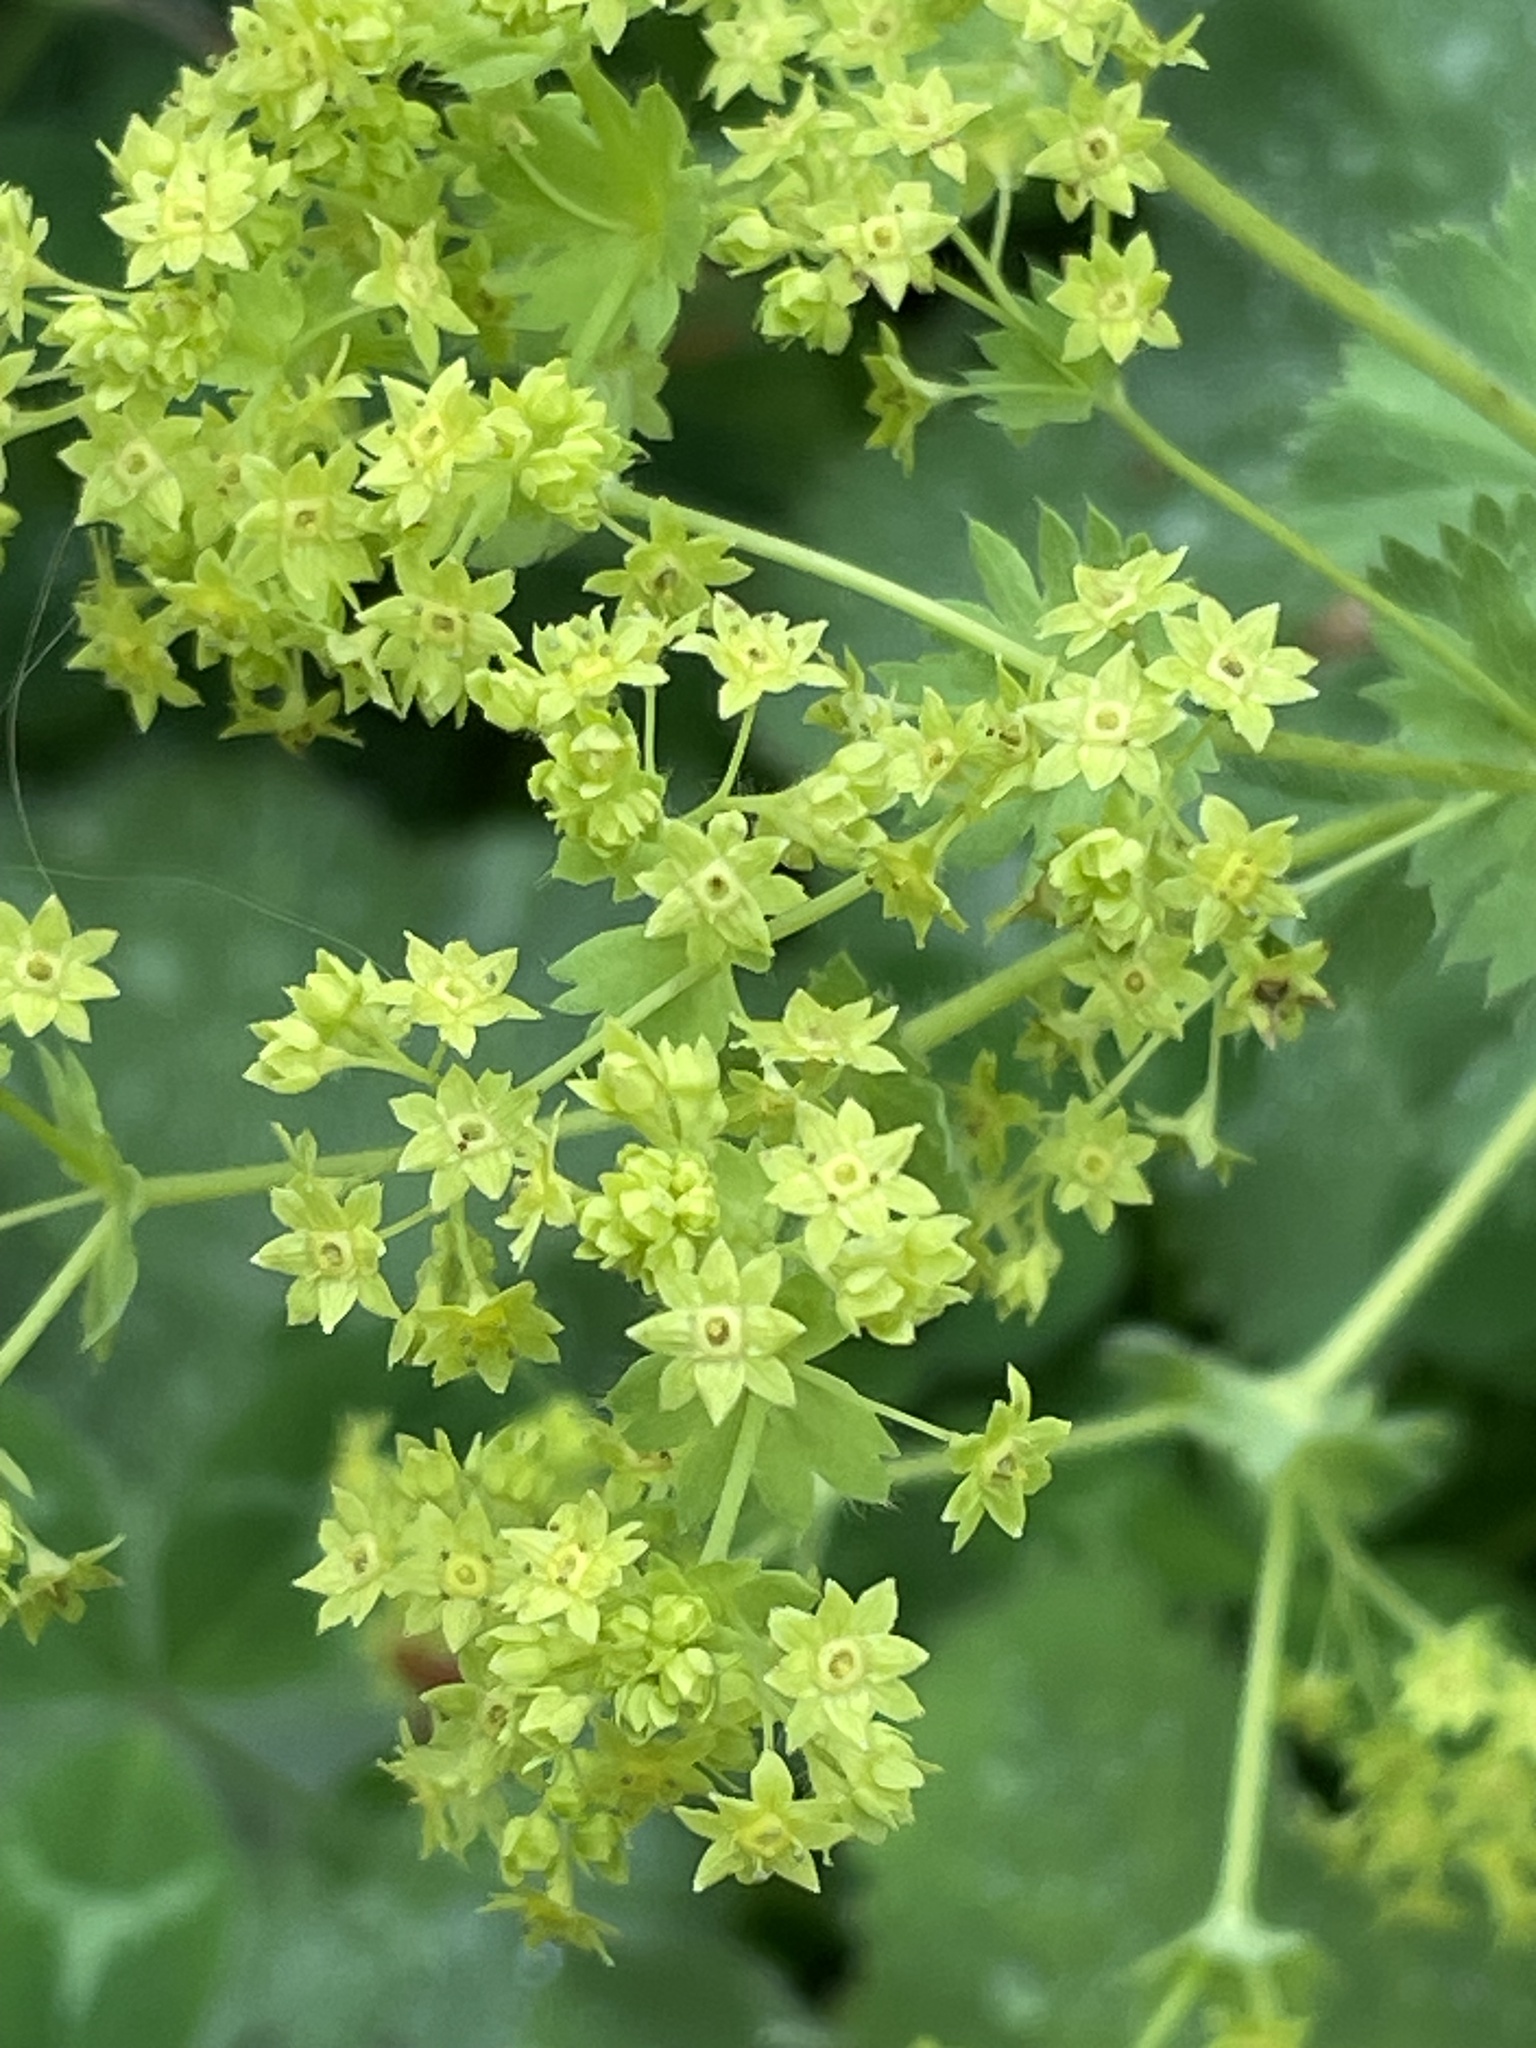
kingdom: Plantae
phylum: Tracheophyta
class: Magnoliopsida
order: Rosales
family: Rosaceae
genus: Alchemilla
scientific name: Alchemilla mollis
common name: Lady's-mantle
